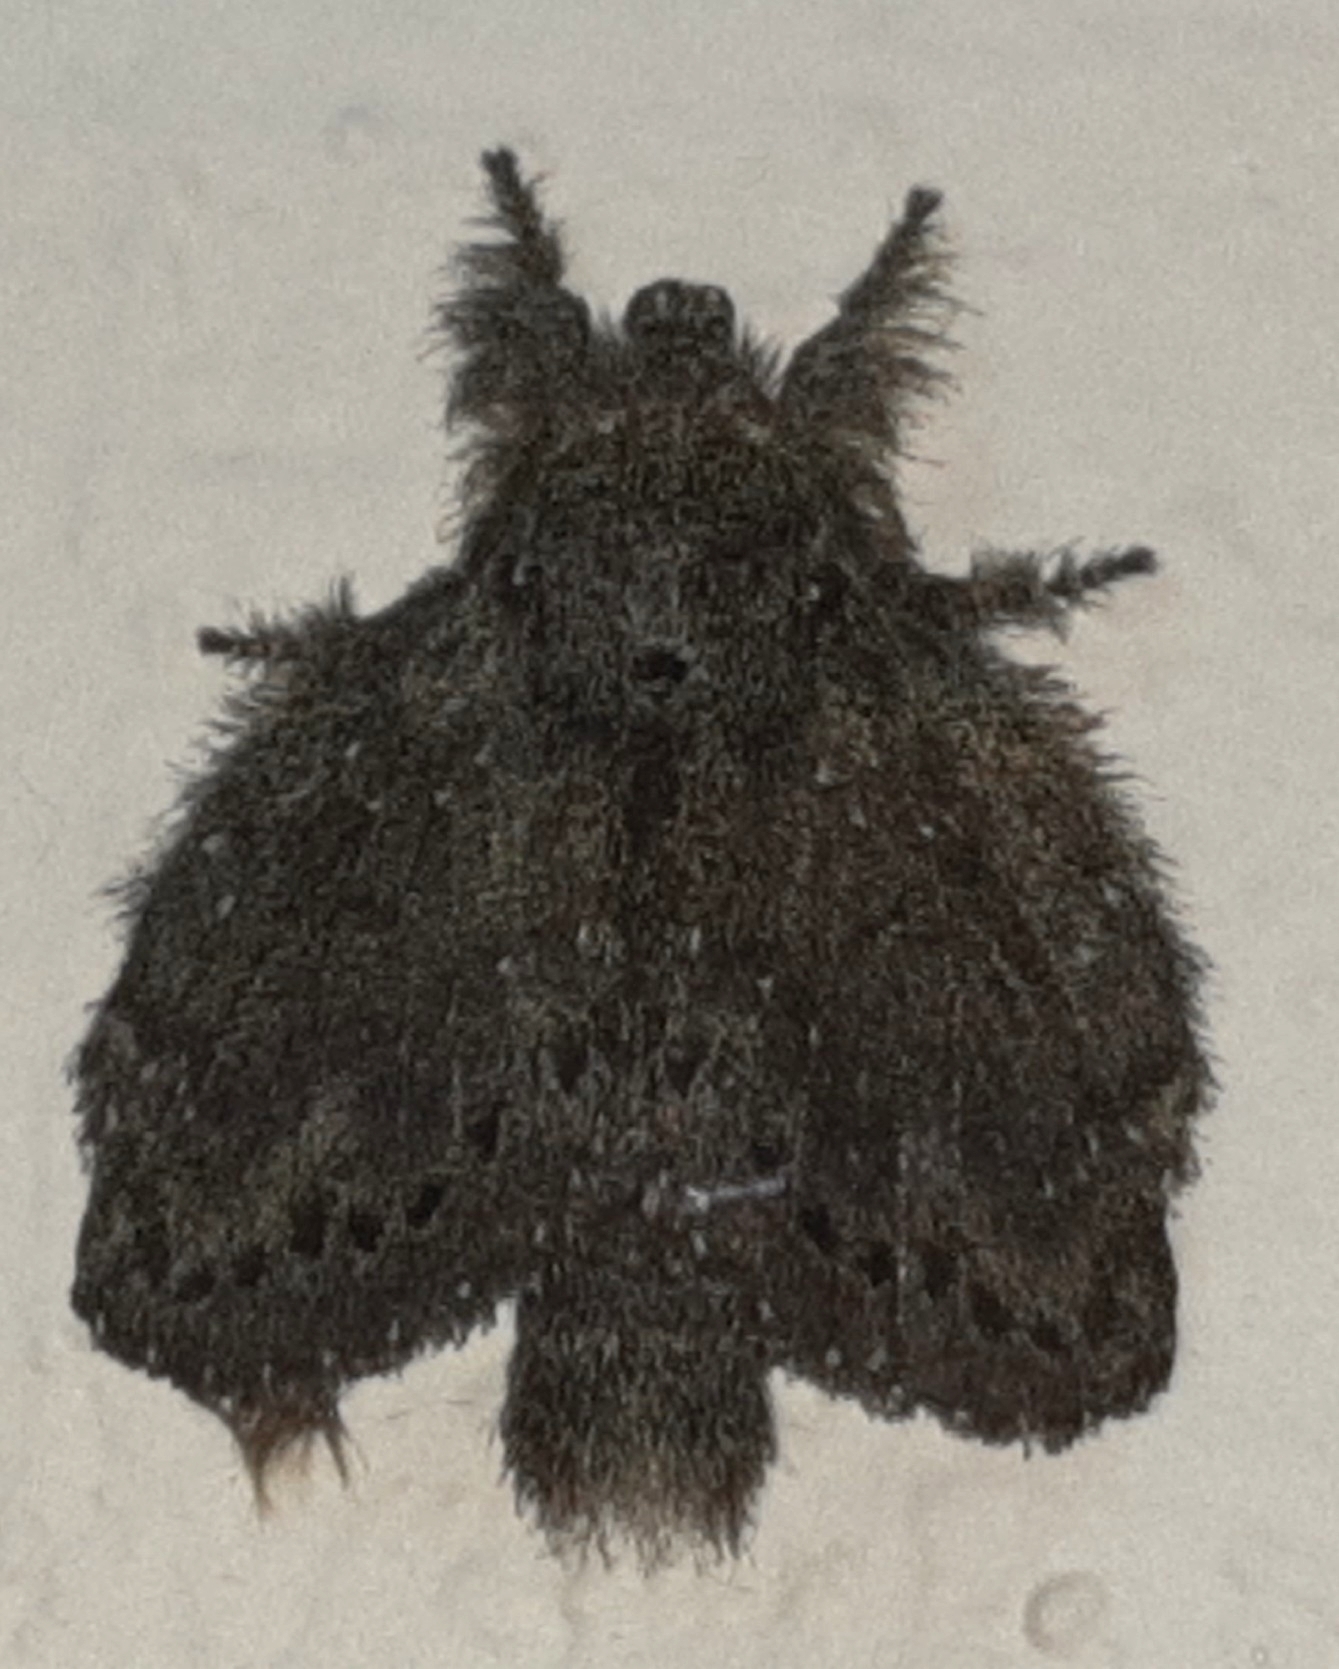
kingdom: Animalia
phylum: Arthropoda
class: Insecta
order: Lepidoptera
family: Lasiocampidae
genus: Euglyphis
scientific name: Euglyphis melancholica
